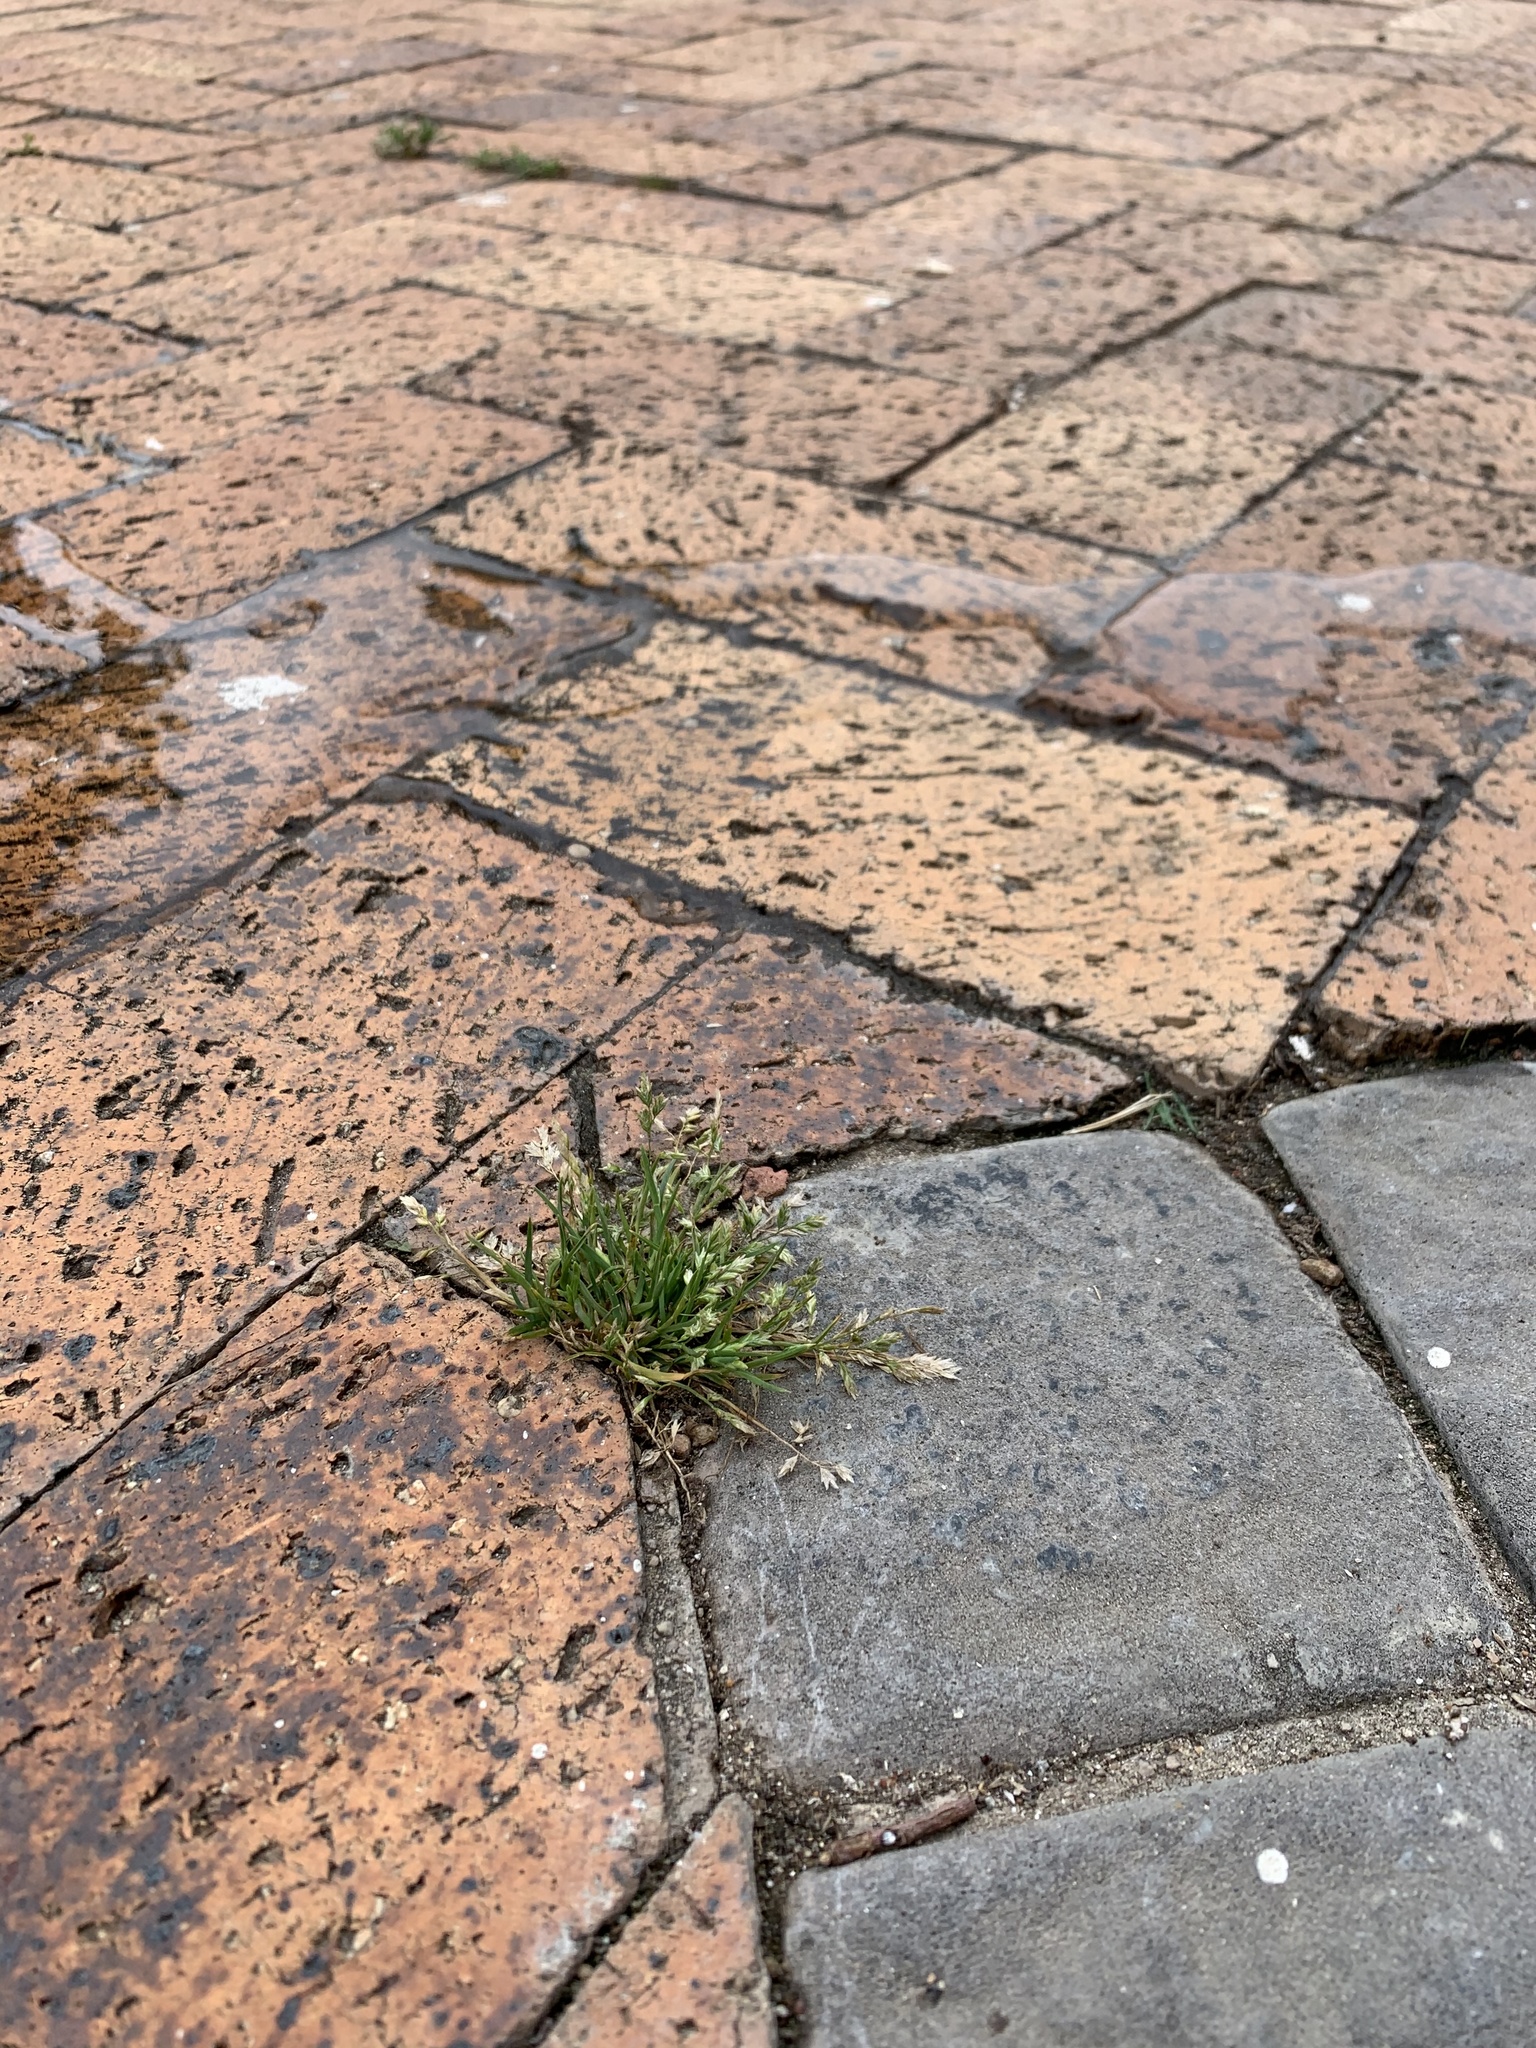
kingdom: Plantae
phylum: Tracheophyta
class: Liliopsida
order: Poales
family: Poaceae
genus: Poa
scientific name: Poa annua
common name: Annual bluegrass
